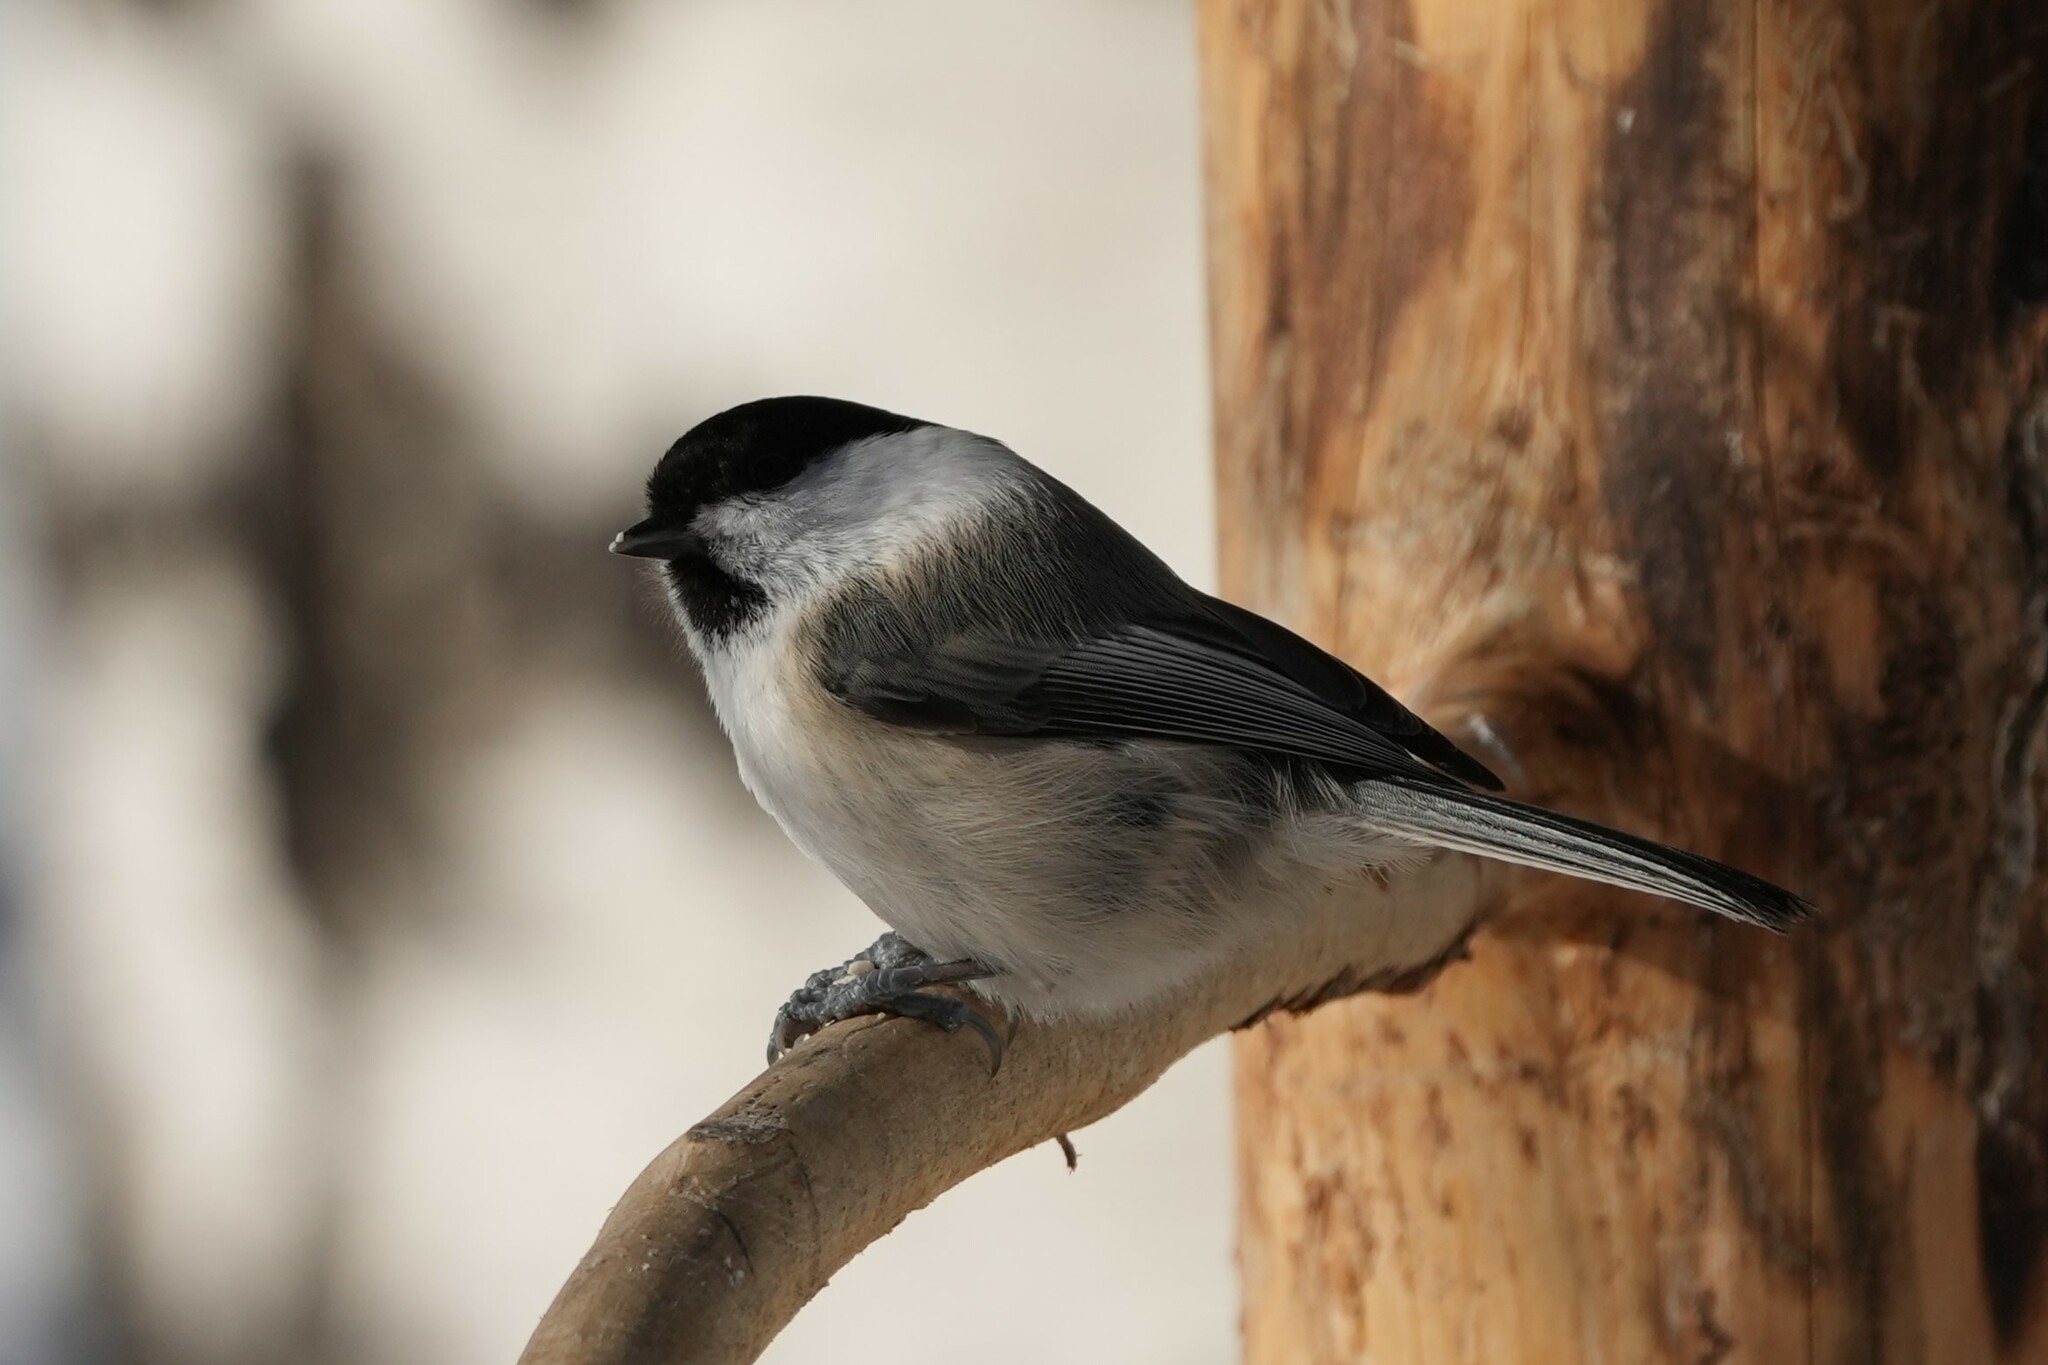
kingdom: Animalia
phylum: Chordata
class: Aves
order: Passeriformes
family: Paridae
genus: Poecile
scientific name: Poecile montanus
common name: Willow tit
